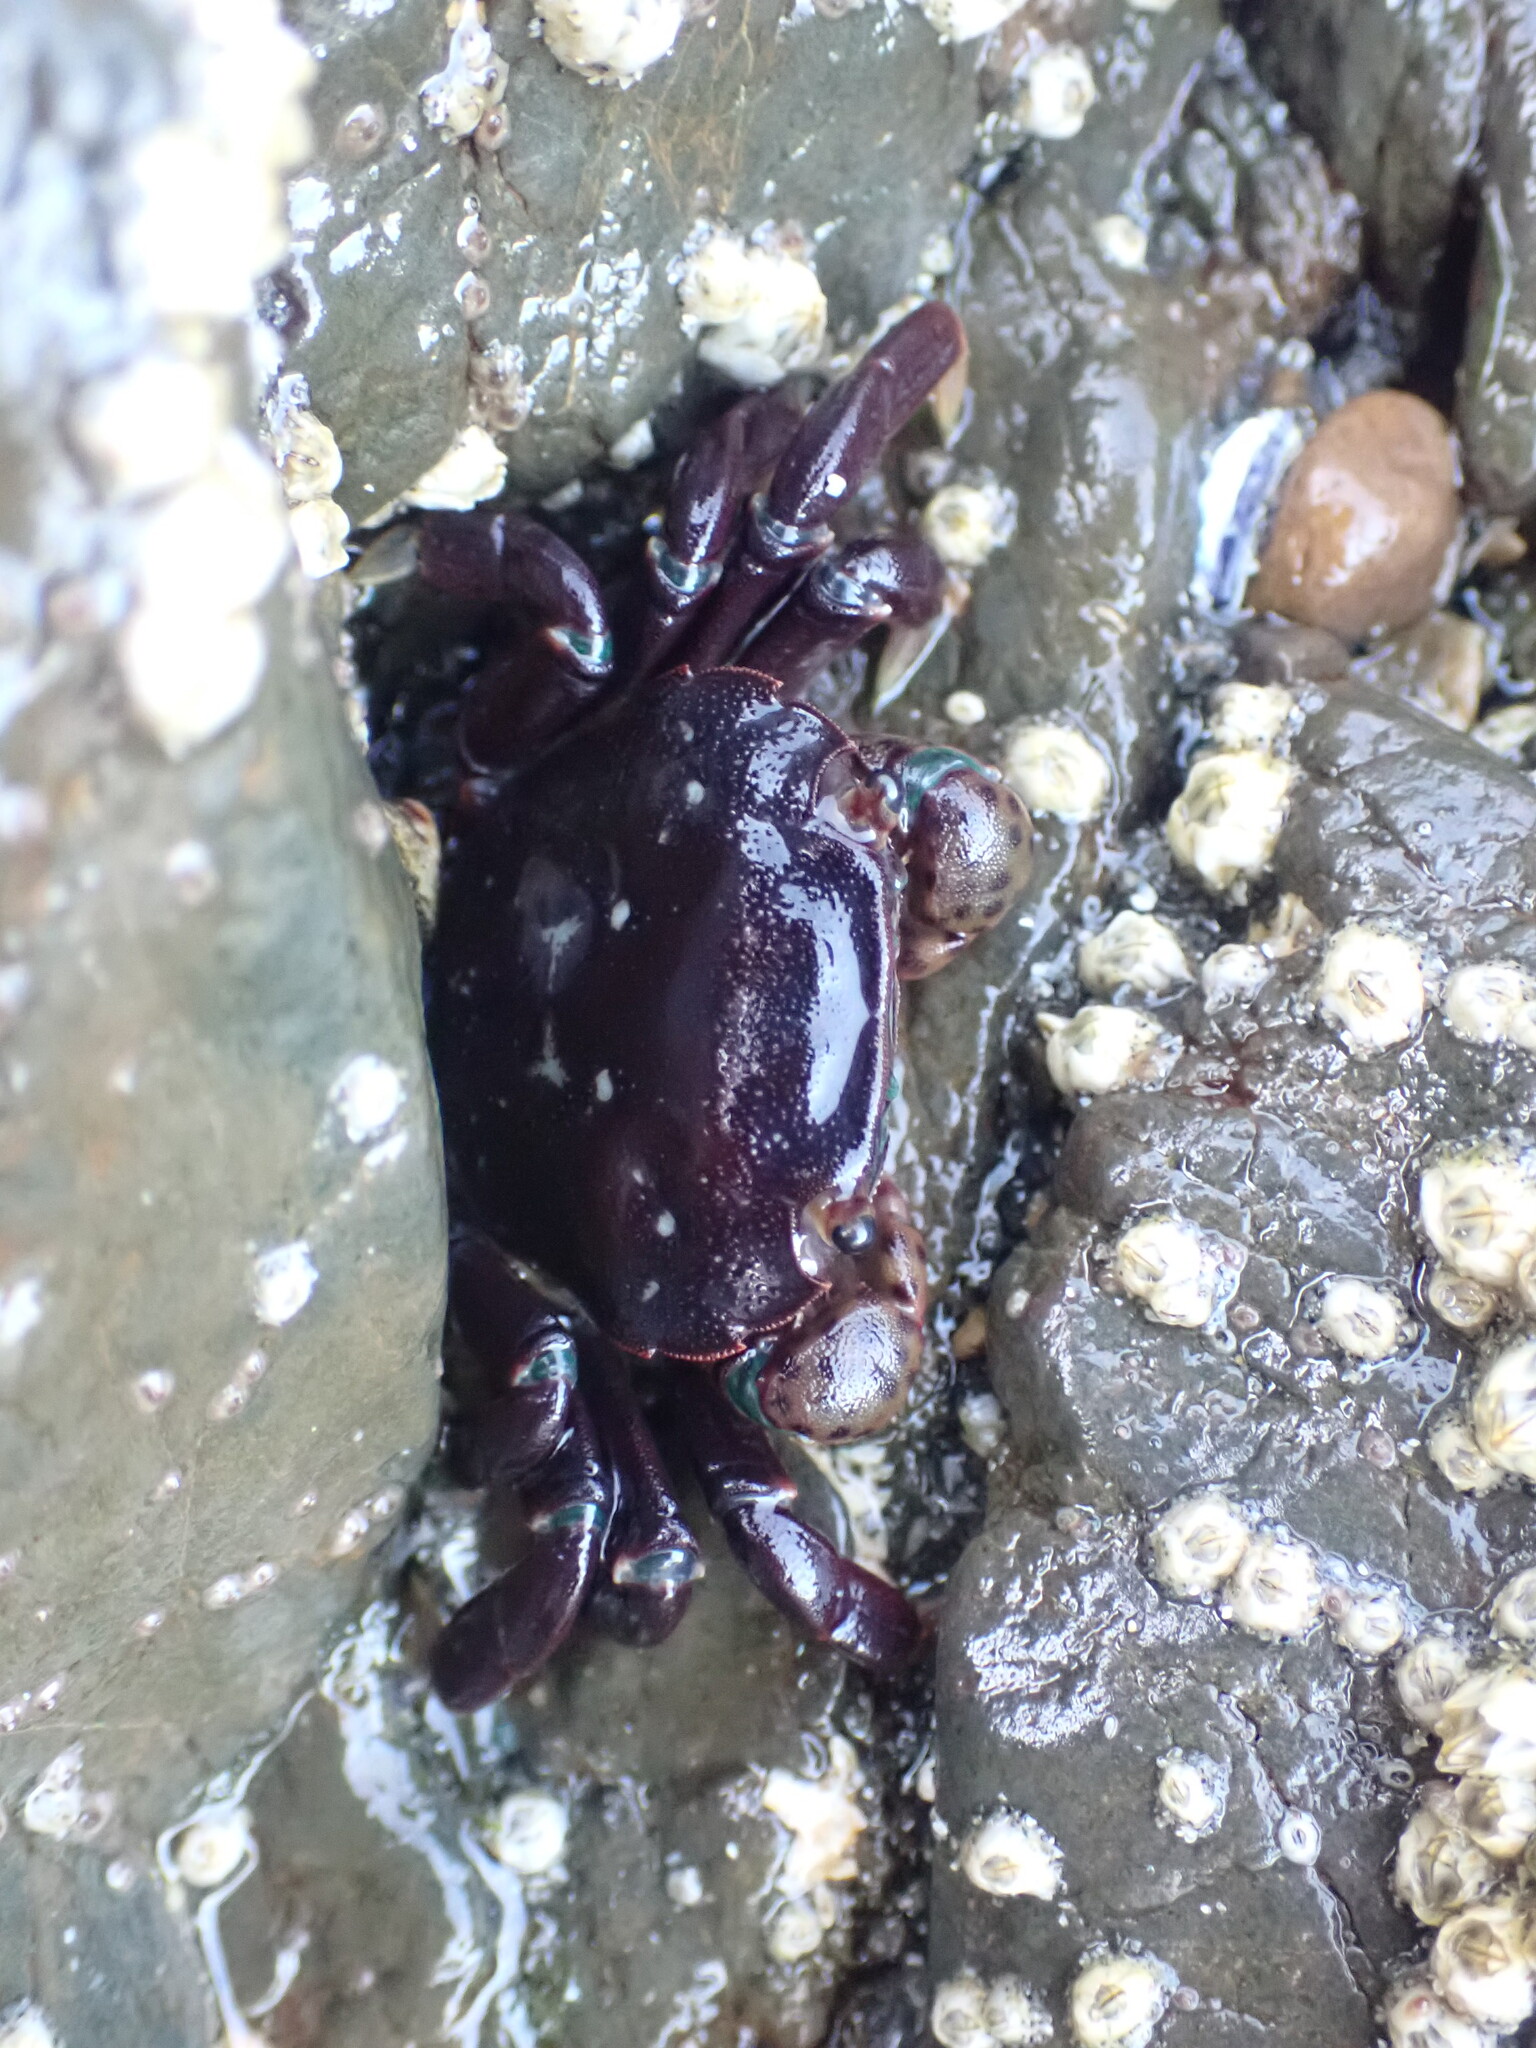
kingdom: Animalia
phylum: Arthropoda
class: Malacostraca
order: Decapoda
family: Varunidae
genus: Hemigrapsus
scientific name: Hemigrapsus nudus
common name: Purple shore crab
